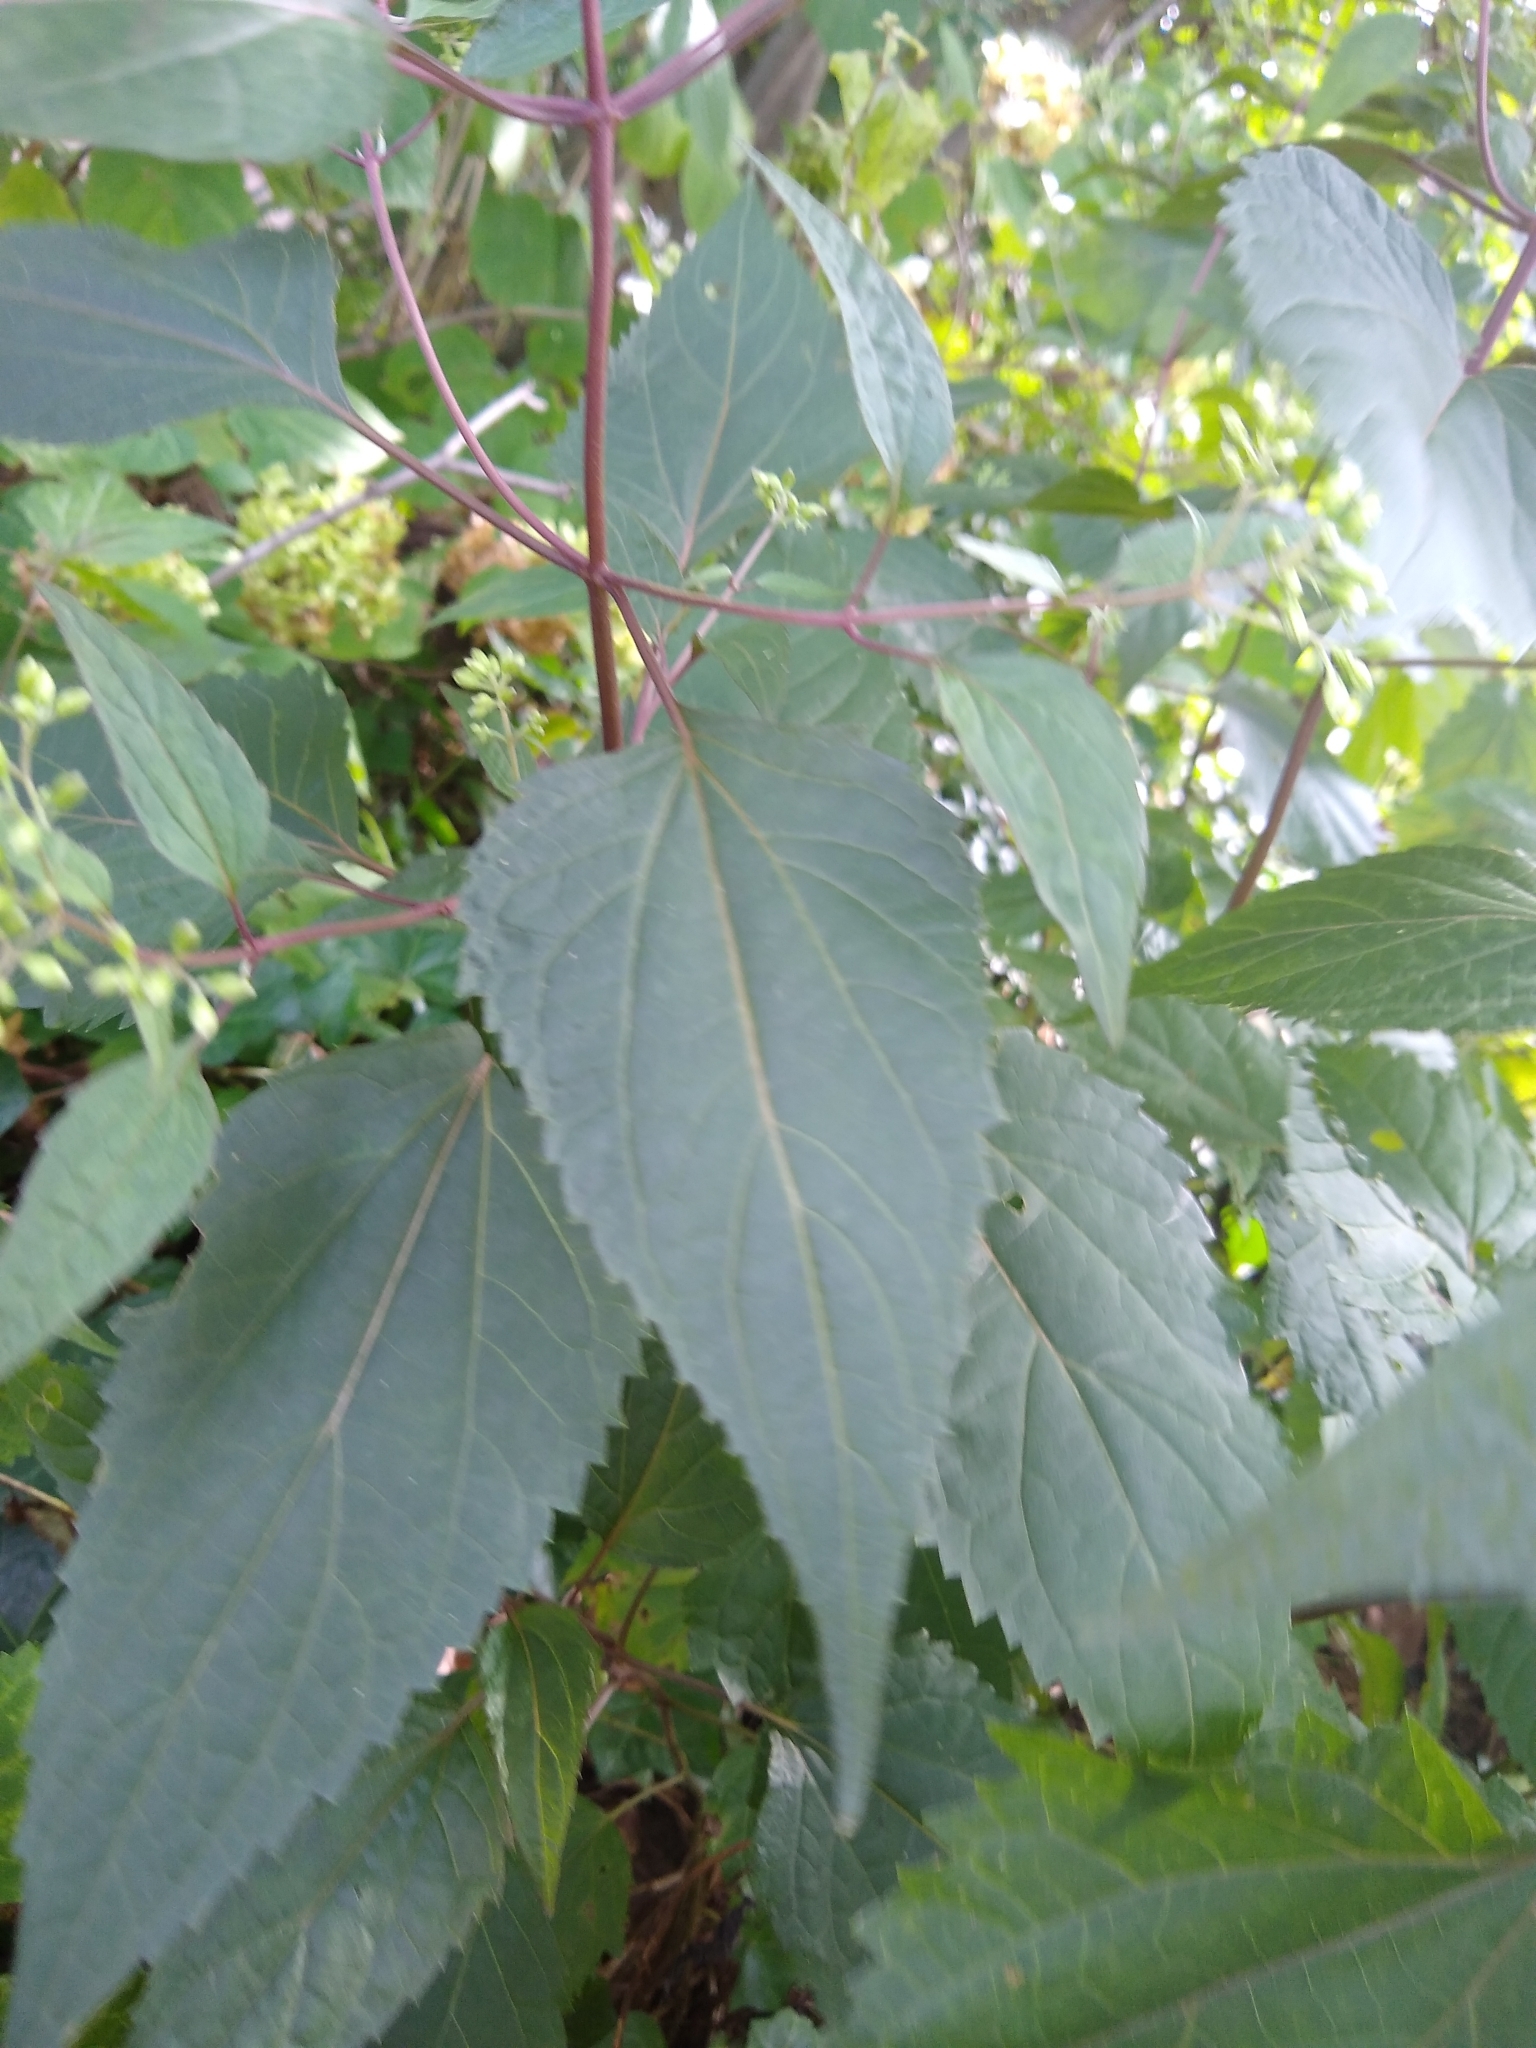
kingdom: Plantae
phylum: Tracheophyta
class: Magnoliopsida
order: Asterales
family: Asteraceae
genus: Ageratina
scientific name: Ageratina altissima
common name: White snakeroot
